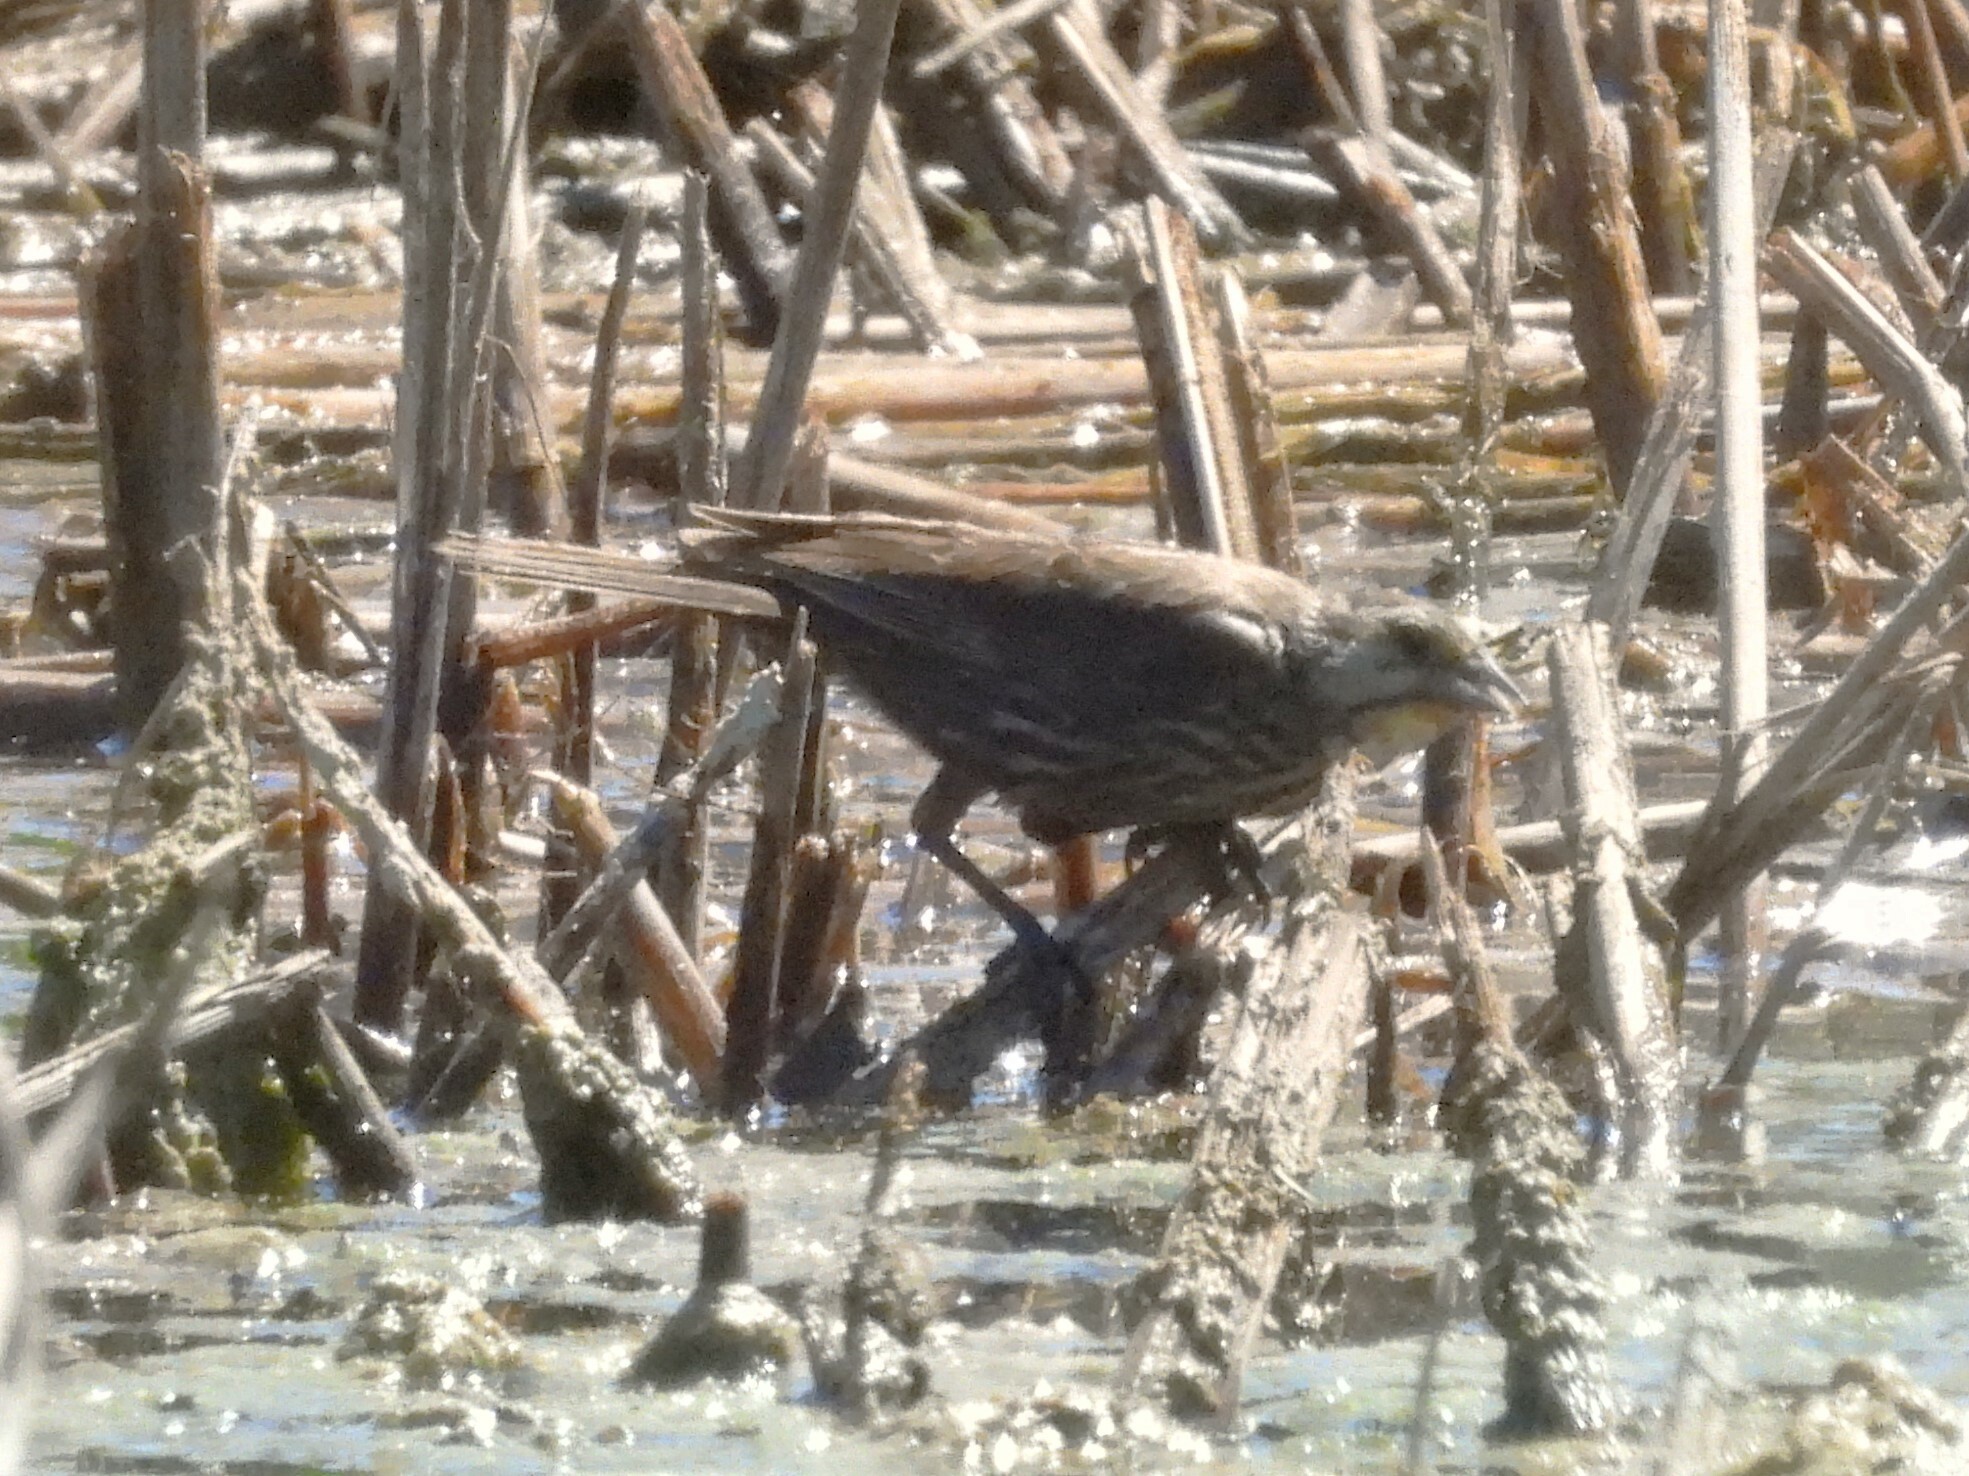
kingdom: Animalia
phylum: Chordata
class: Aves
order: Passeriformes
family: Passerellidae
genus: Melospiza
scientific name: Melospiza melodia
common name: Song sparrow
